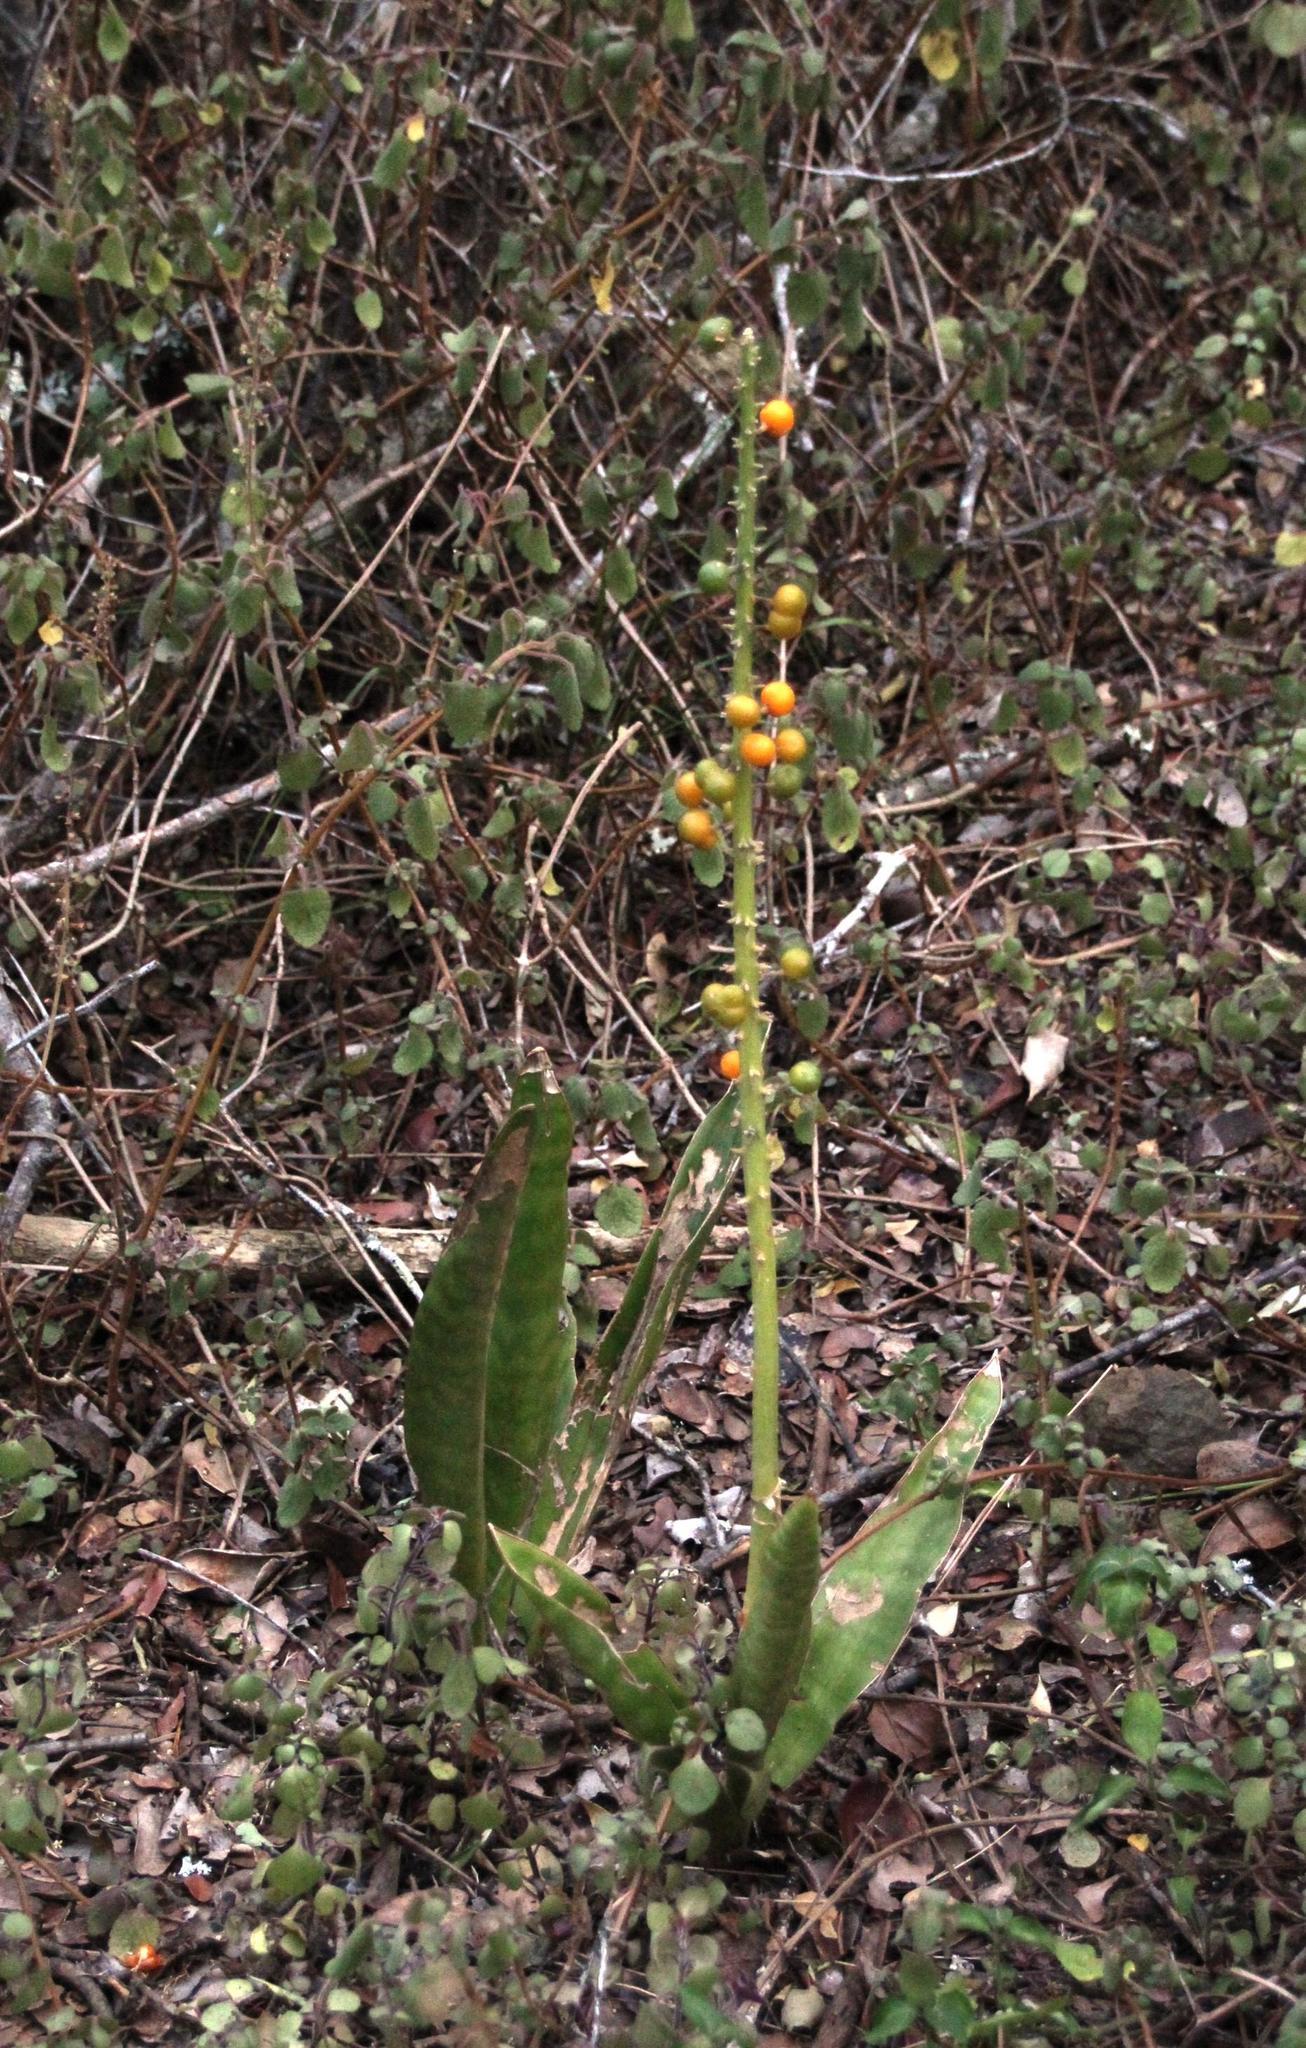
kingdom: Plantae
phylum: Tracheophyta
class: Liliopsida
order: Asparagales
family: Asparagaceae
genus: Dracaena
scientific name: Dracaena hyacinthoides
